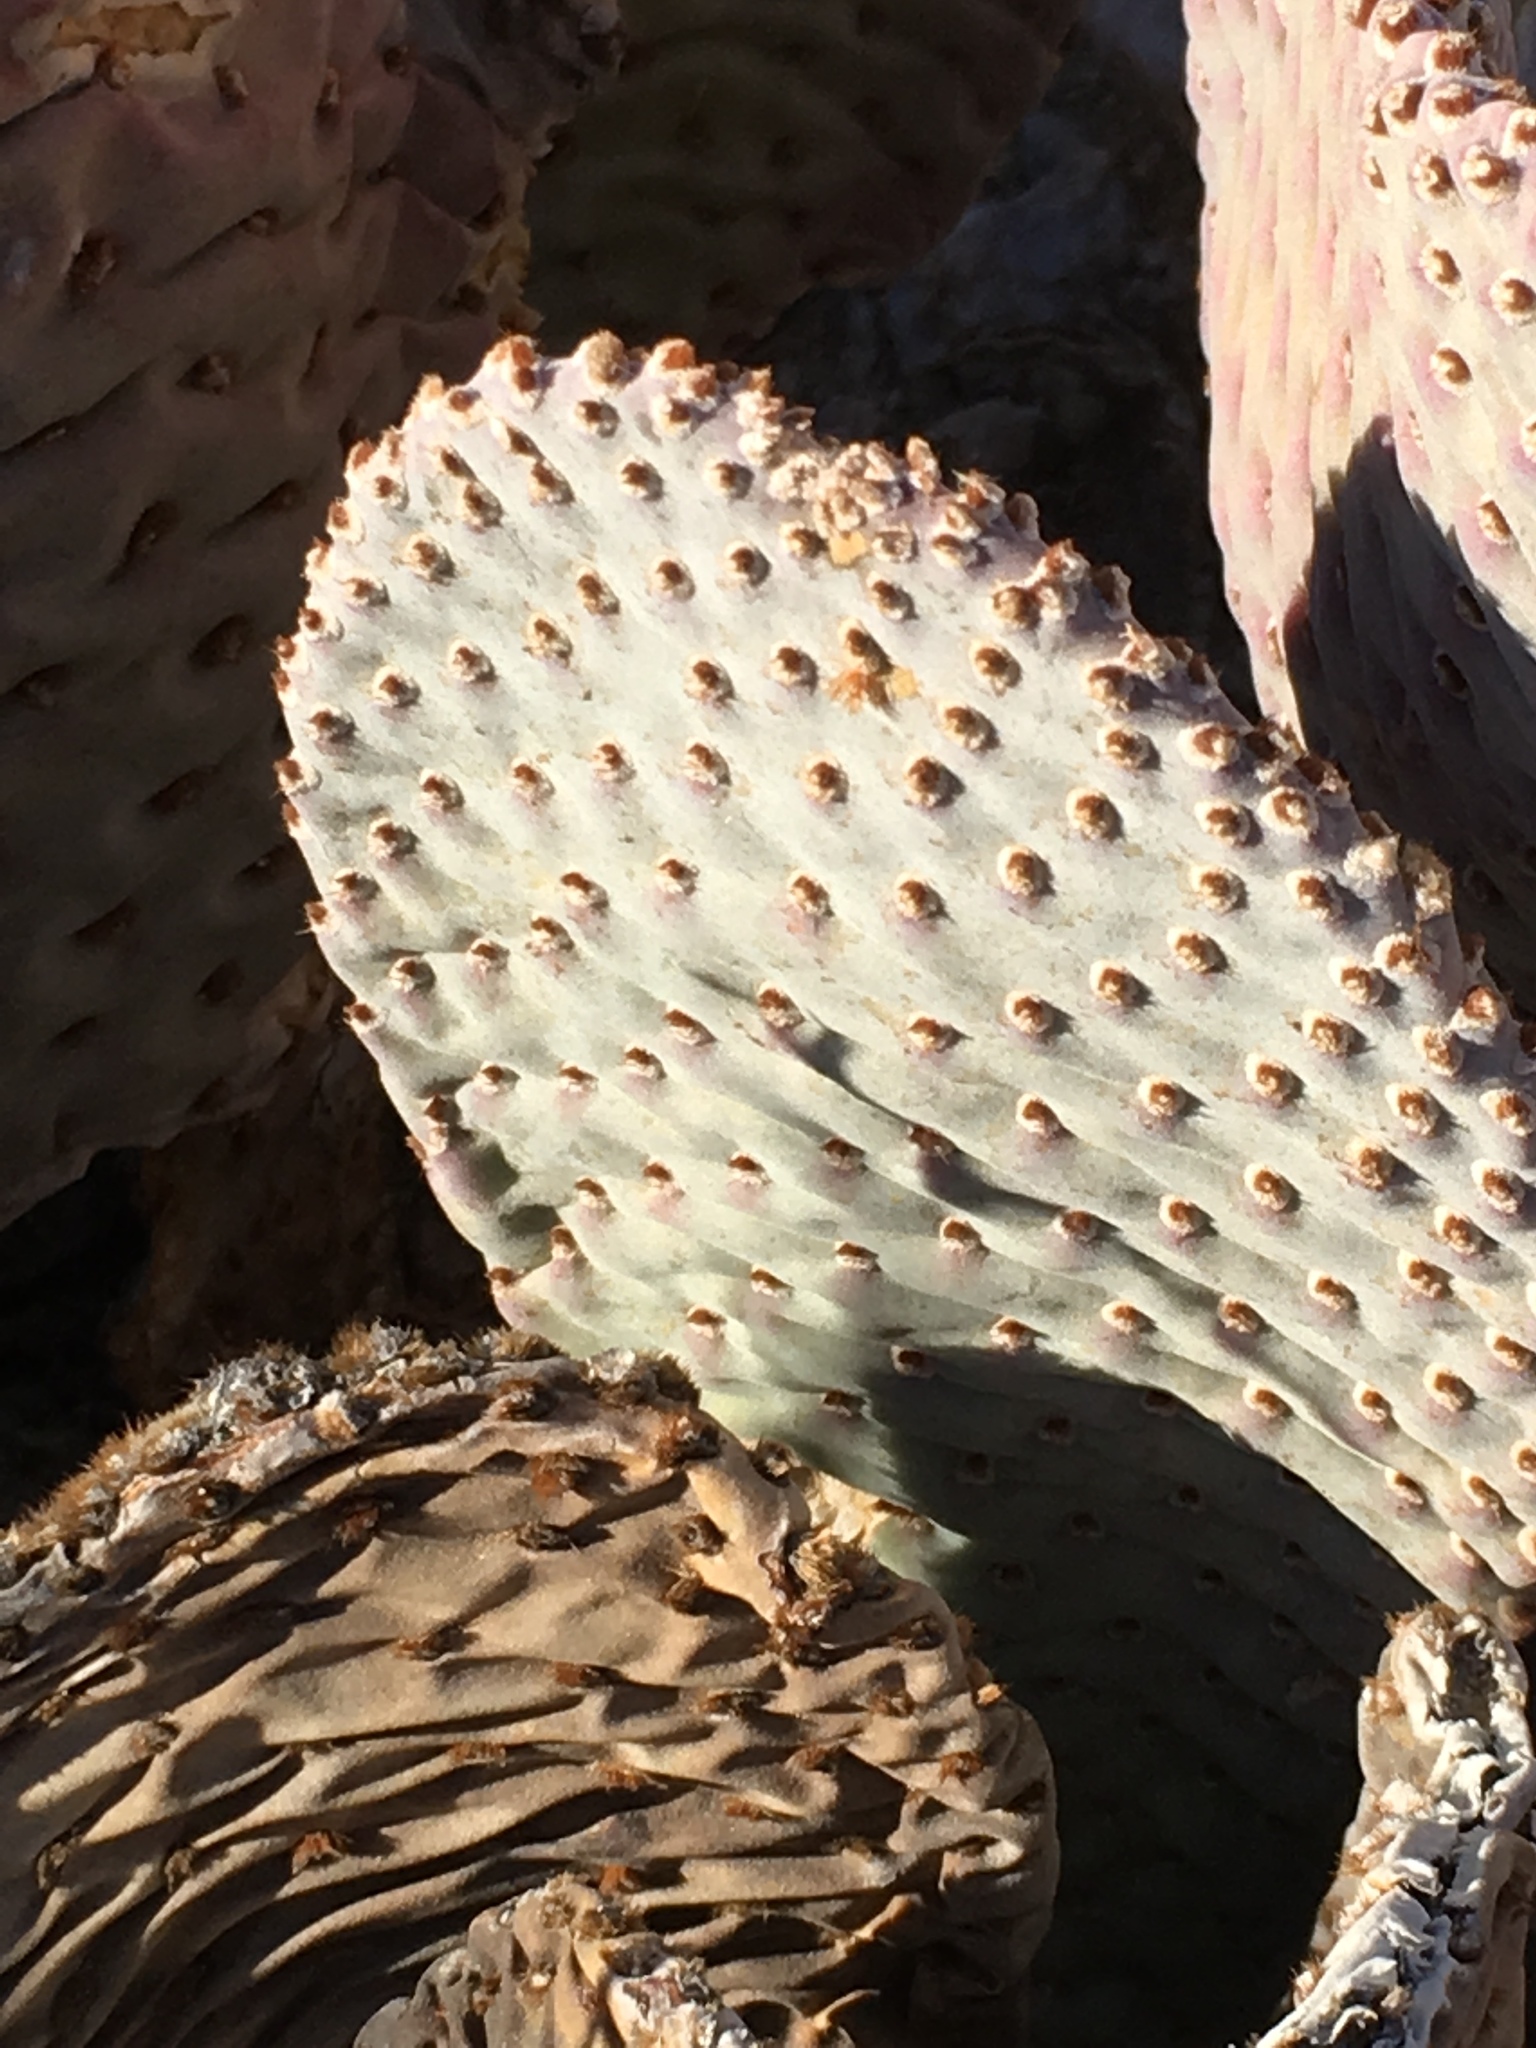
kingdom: Plantae
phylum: Tracheophyta
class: Magnoliopsida
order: Caryophyllales
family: Cactaceae
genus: Opuntia
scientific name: Opuntia basilaris
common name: Beavertail prickly-pear
